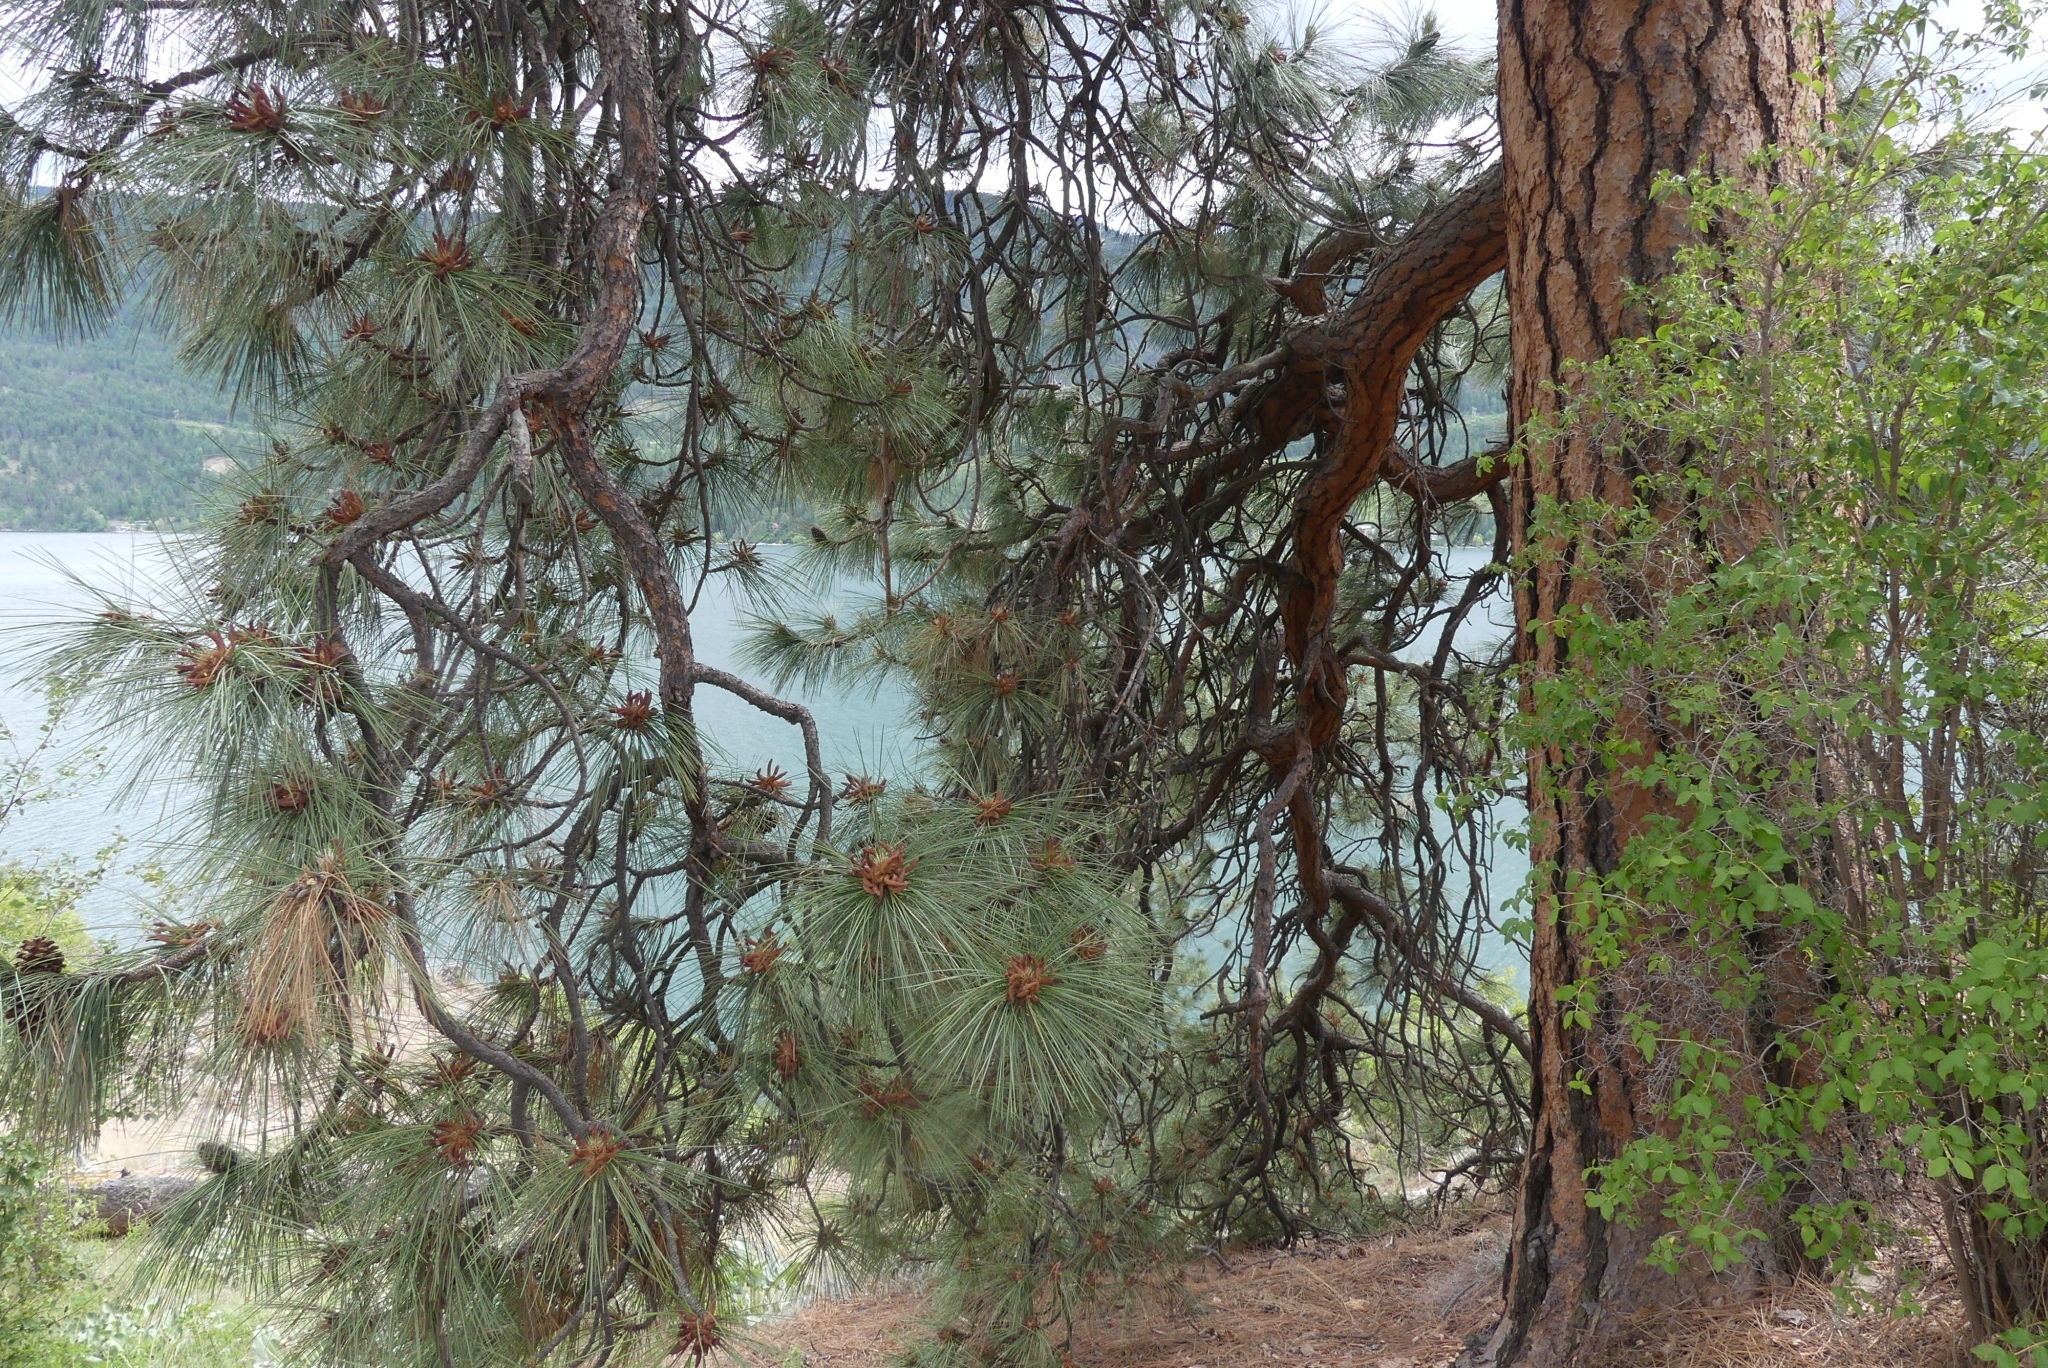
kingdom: Plantae
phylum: Tracheophyta
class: Pinopsida
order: Pinales
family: Pinaceae
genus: Pinus
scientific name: Pinus ponderosa
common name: Western yellow-pine
